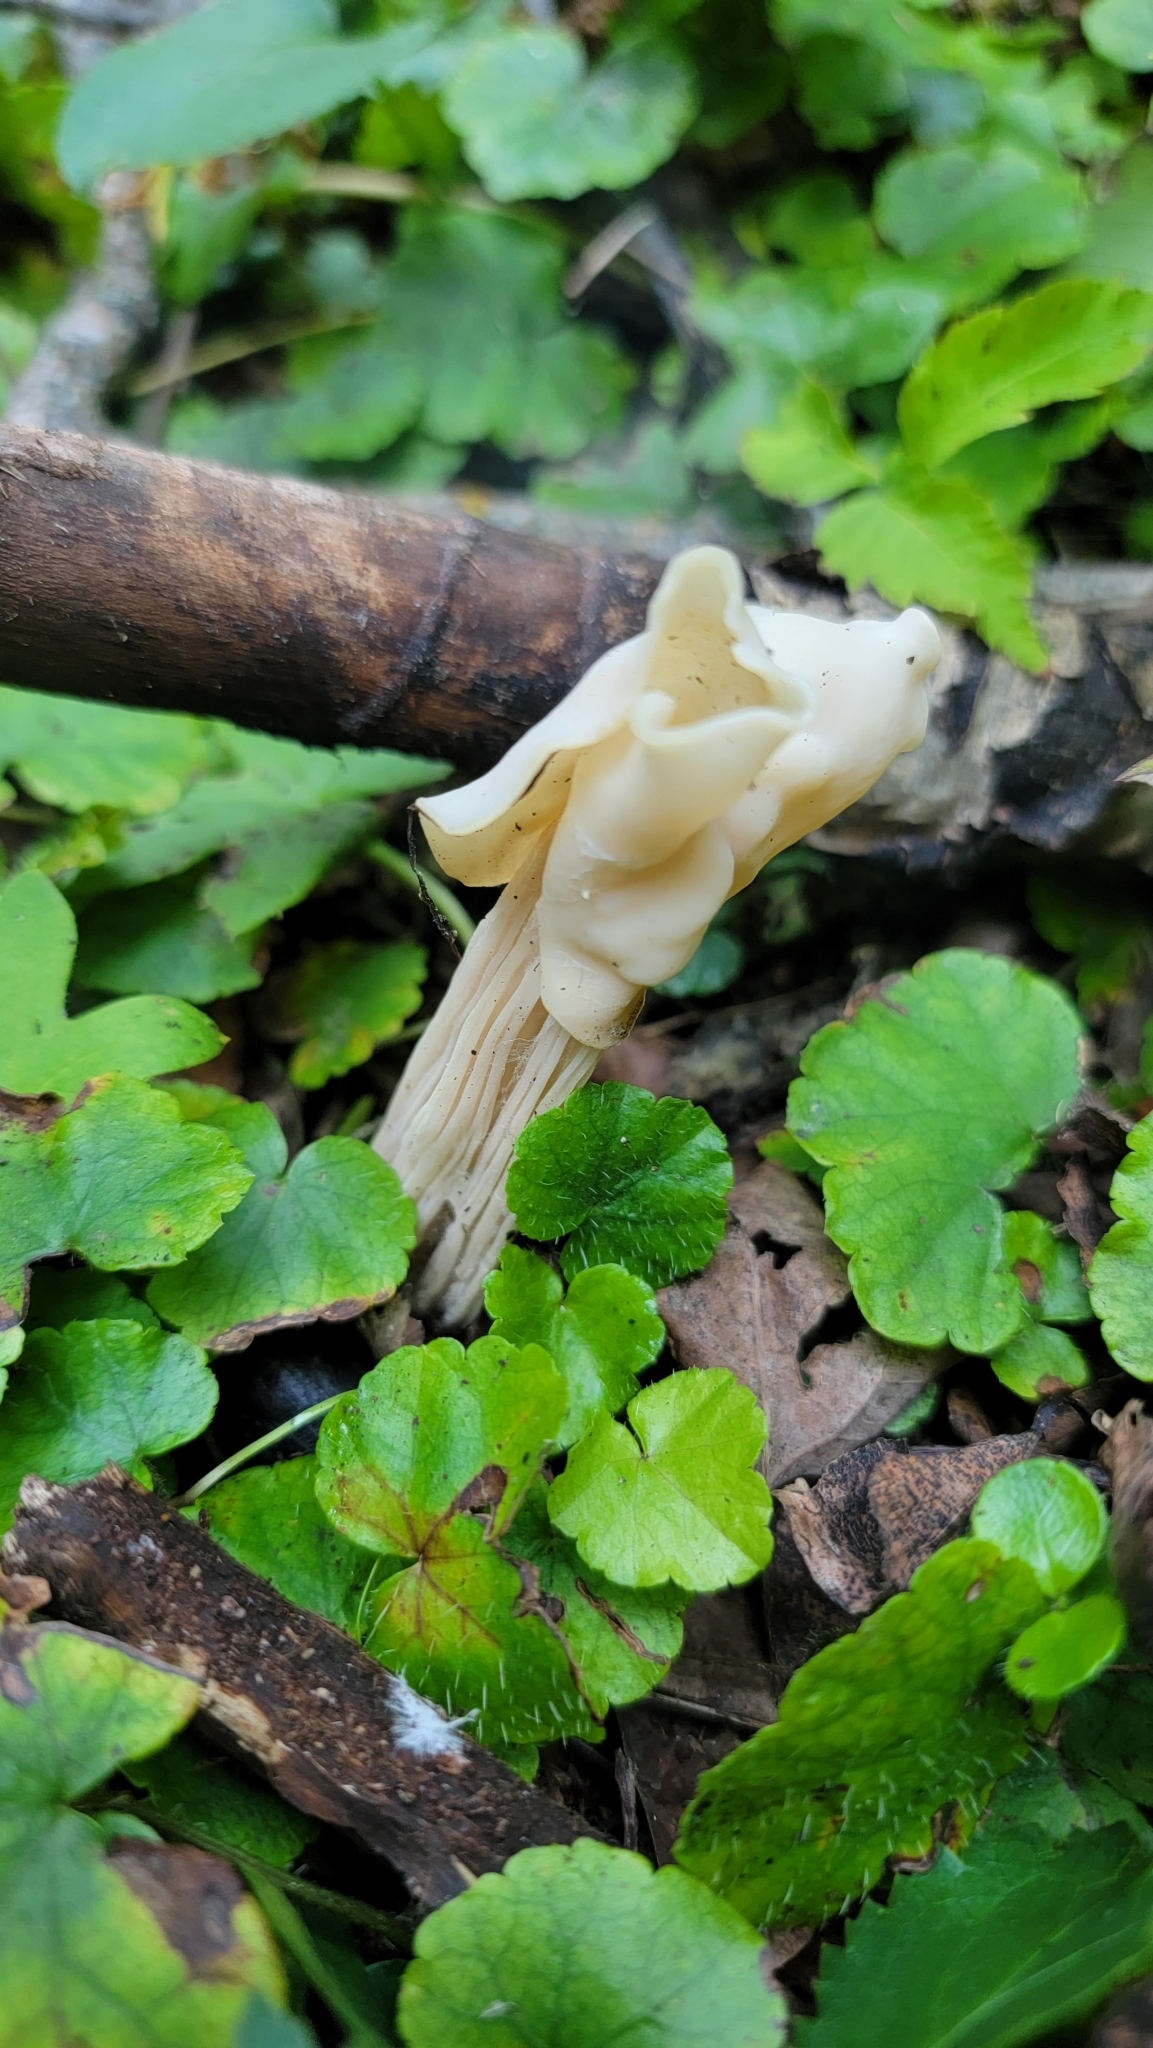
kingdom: Fungi
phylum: Ascomycota
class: Pezizomycetes
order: Pezizales
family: Helvellaceae
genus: Helvella
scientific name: Helvella crispa
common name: White saddle
